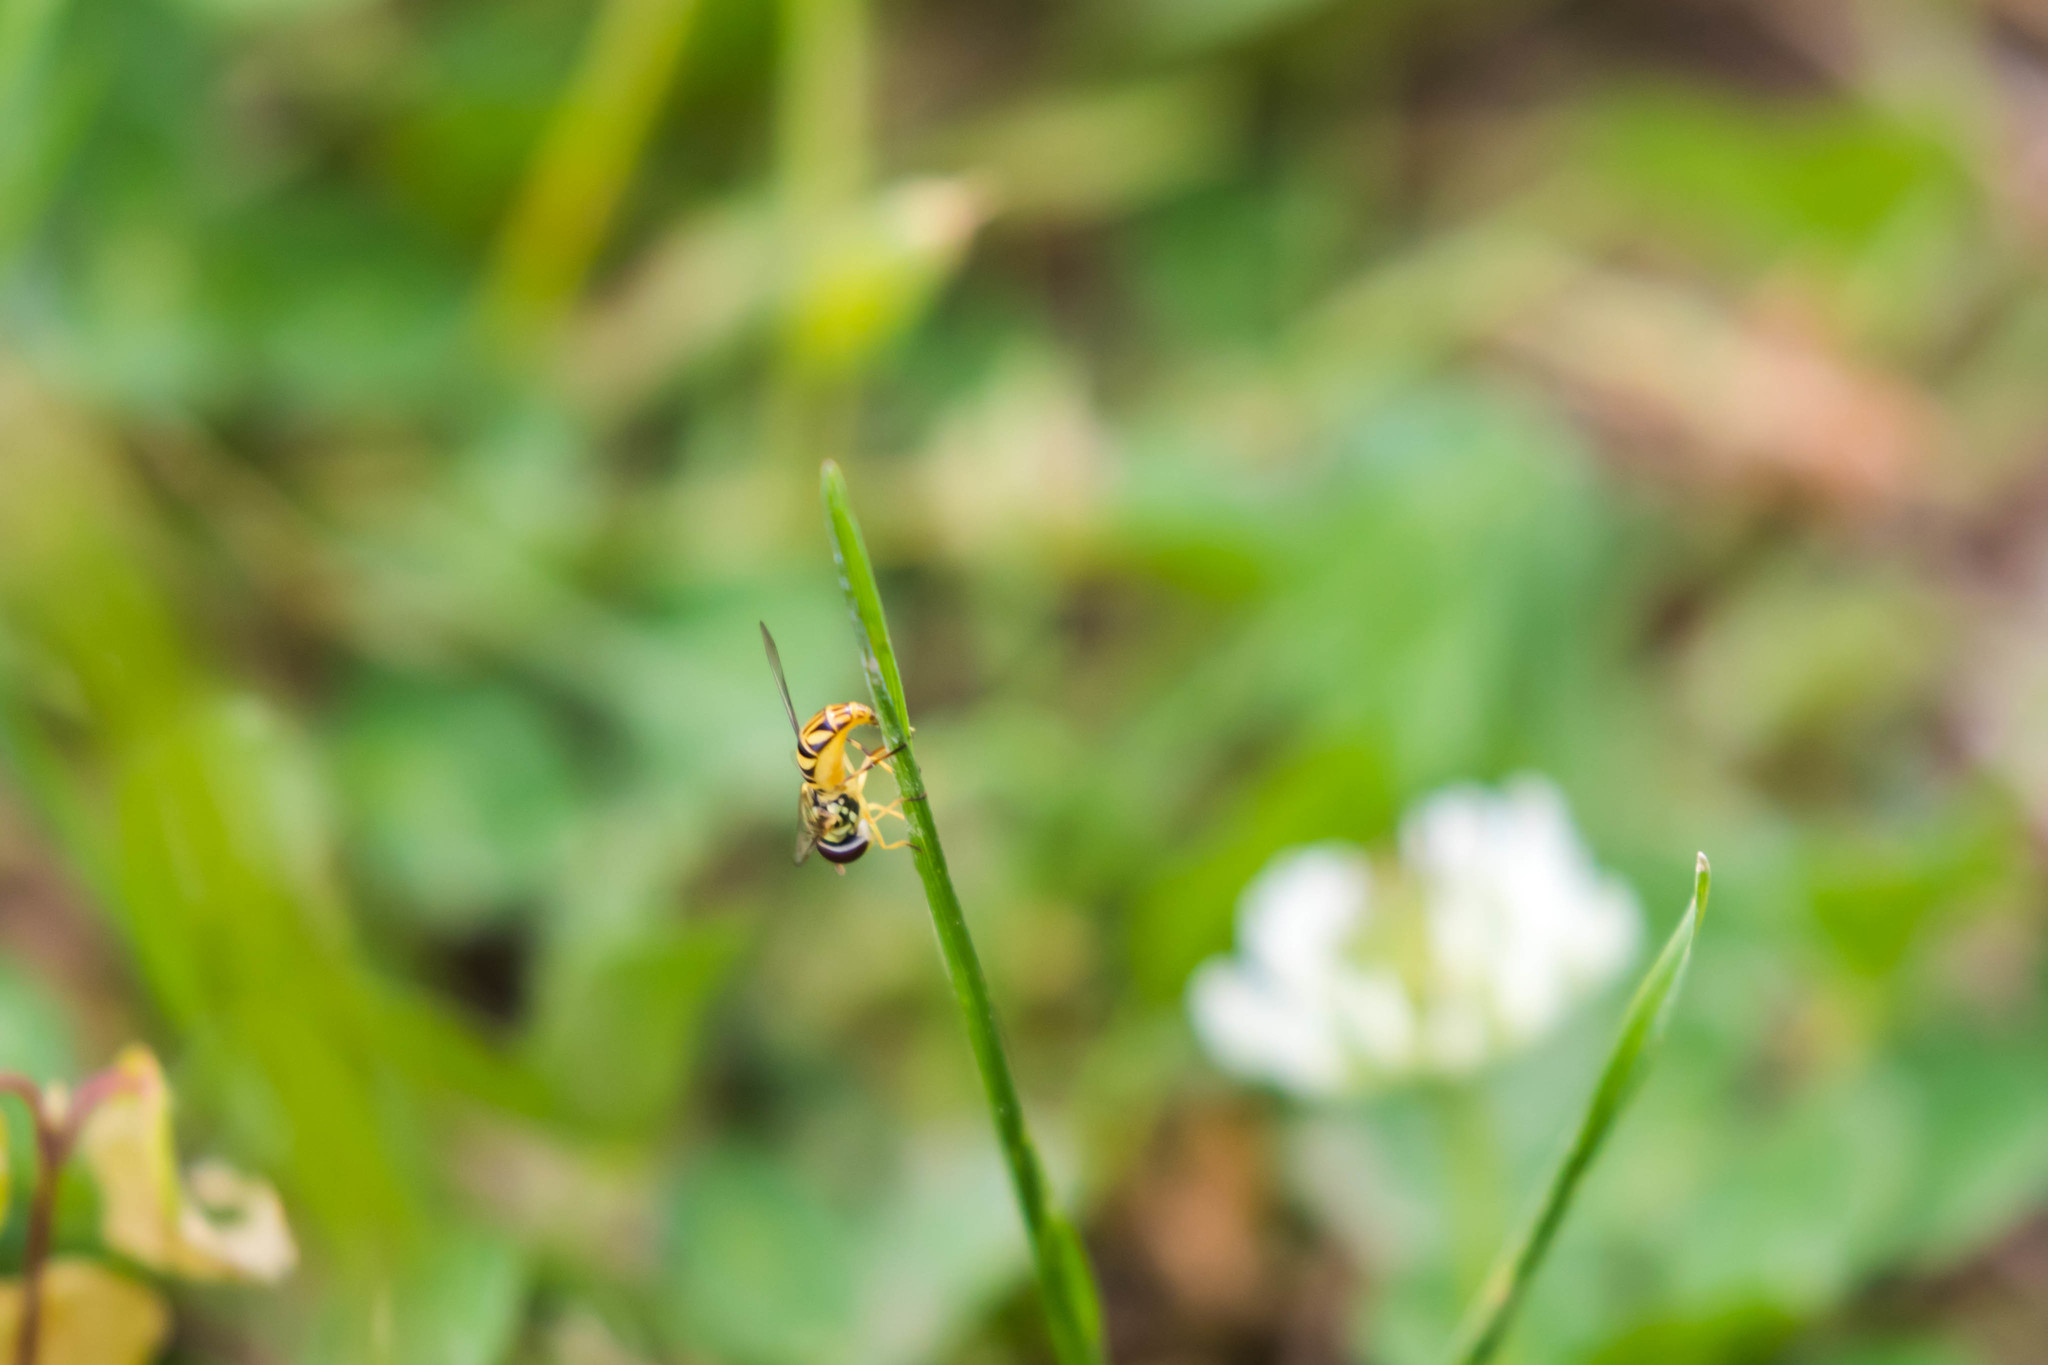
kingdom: Animalia
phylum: Arthropoda
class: Insecta
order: Diptera
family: Syrphidae
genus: Allograpta
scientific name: Allograpta obliqua
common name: Common oblique syrphid
